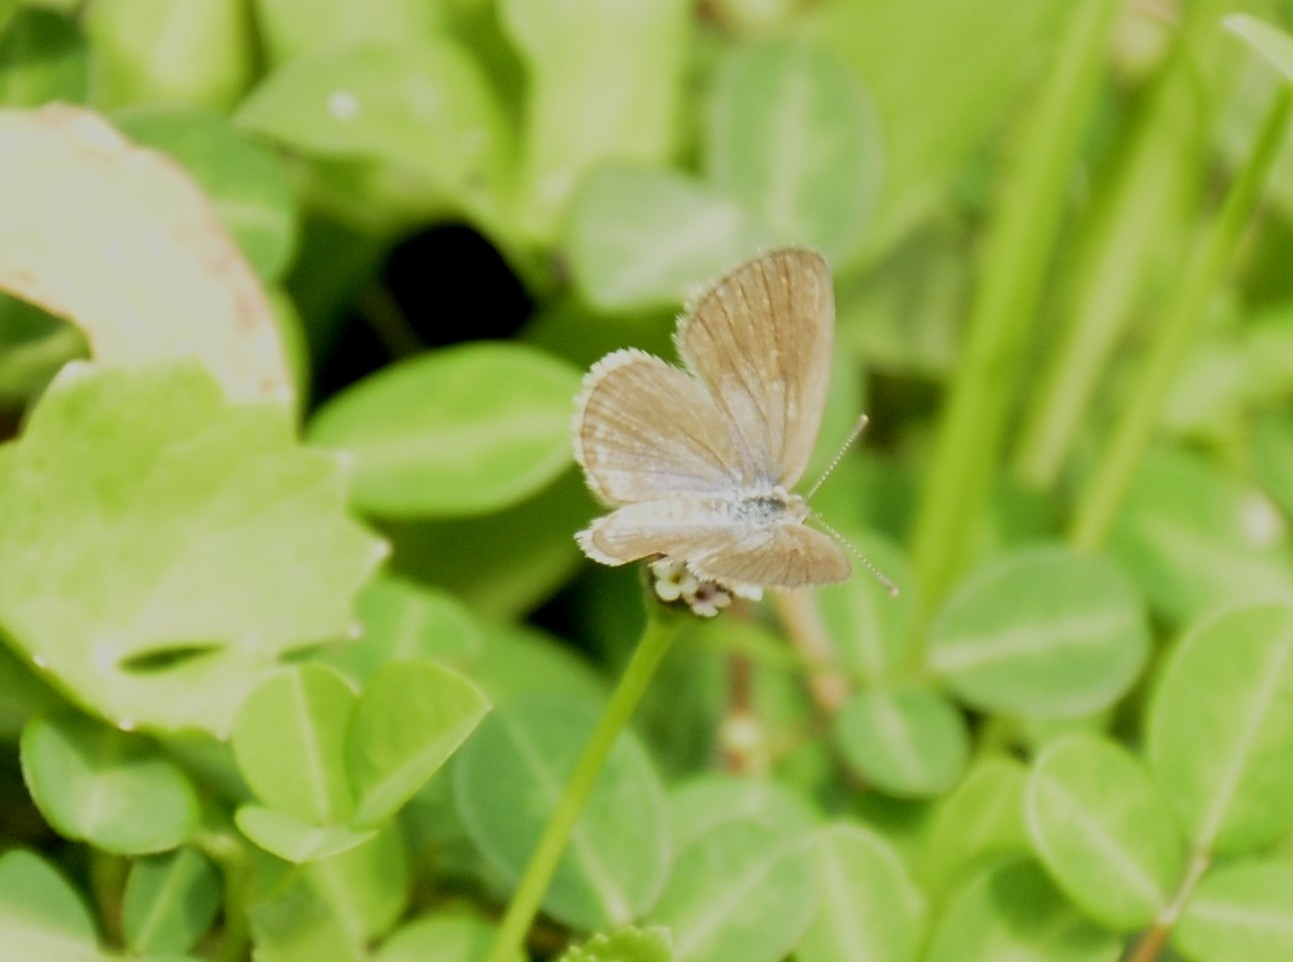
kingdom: Animalia
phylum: Arthropoda
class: Insecta
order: Lepidoptera
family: Lycaenidae
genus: Zizina
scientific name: Zizina otis
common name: Lesser grass blue
